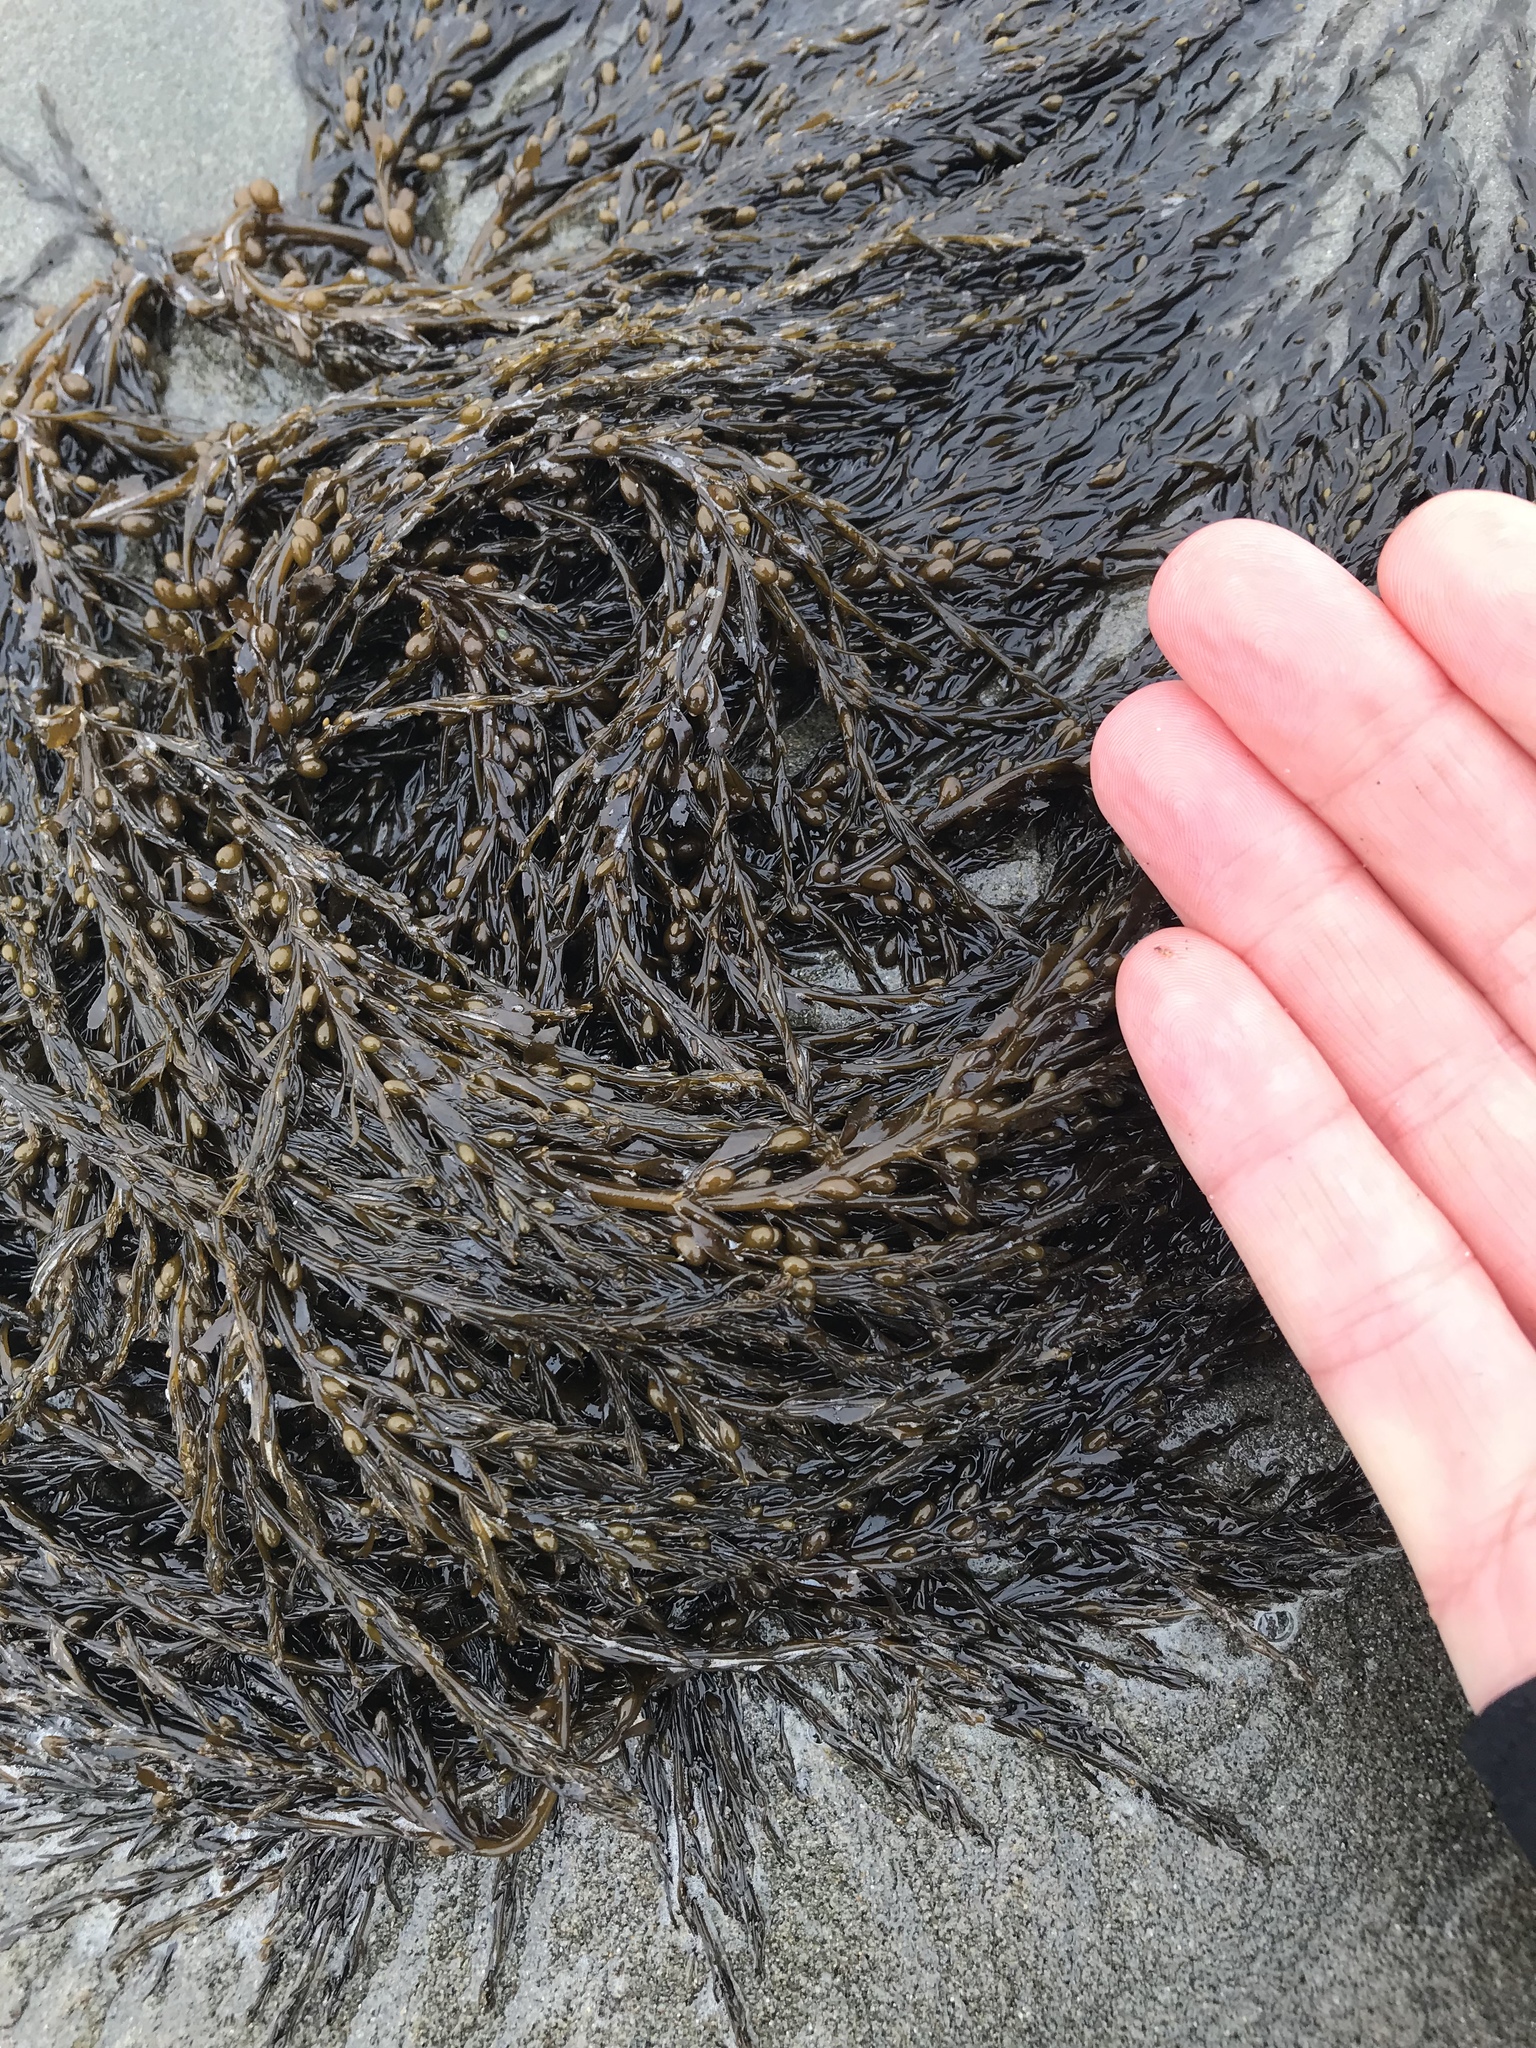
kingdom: Chromista
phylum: Ochrophyta
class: Phaeophyceae
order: Fucales
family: Sargassaceae
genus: Sargassum
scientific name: Sargassum muticum
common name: Japweed
